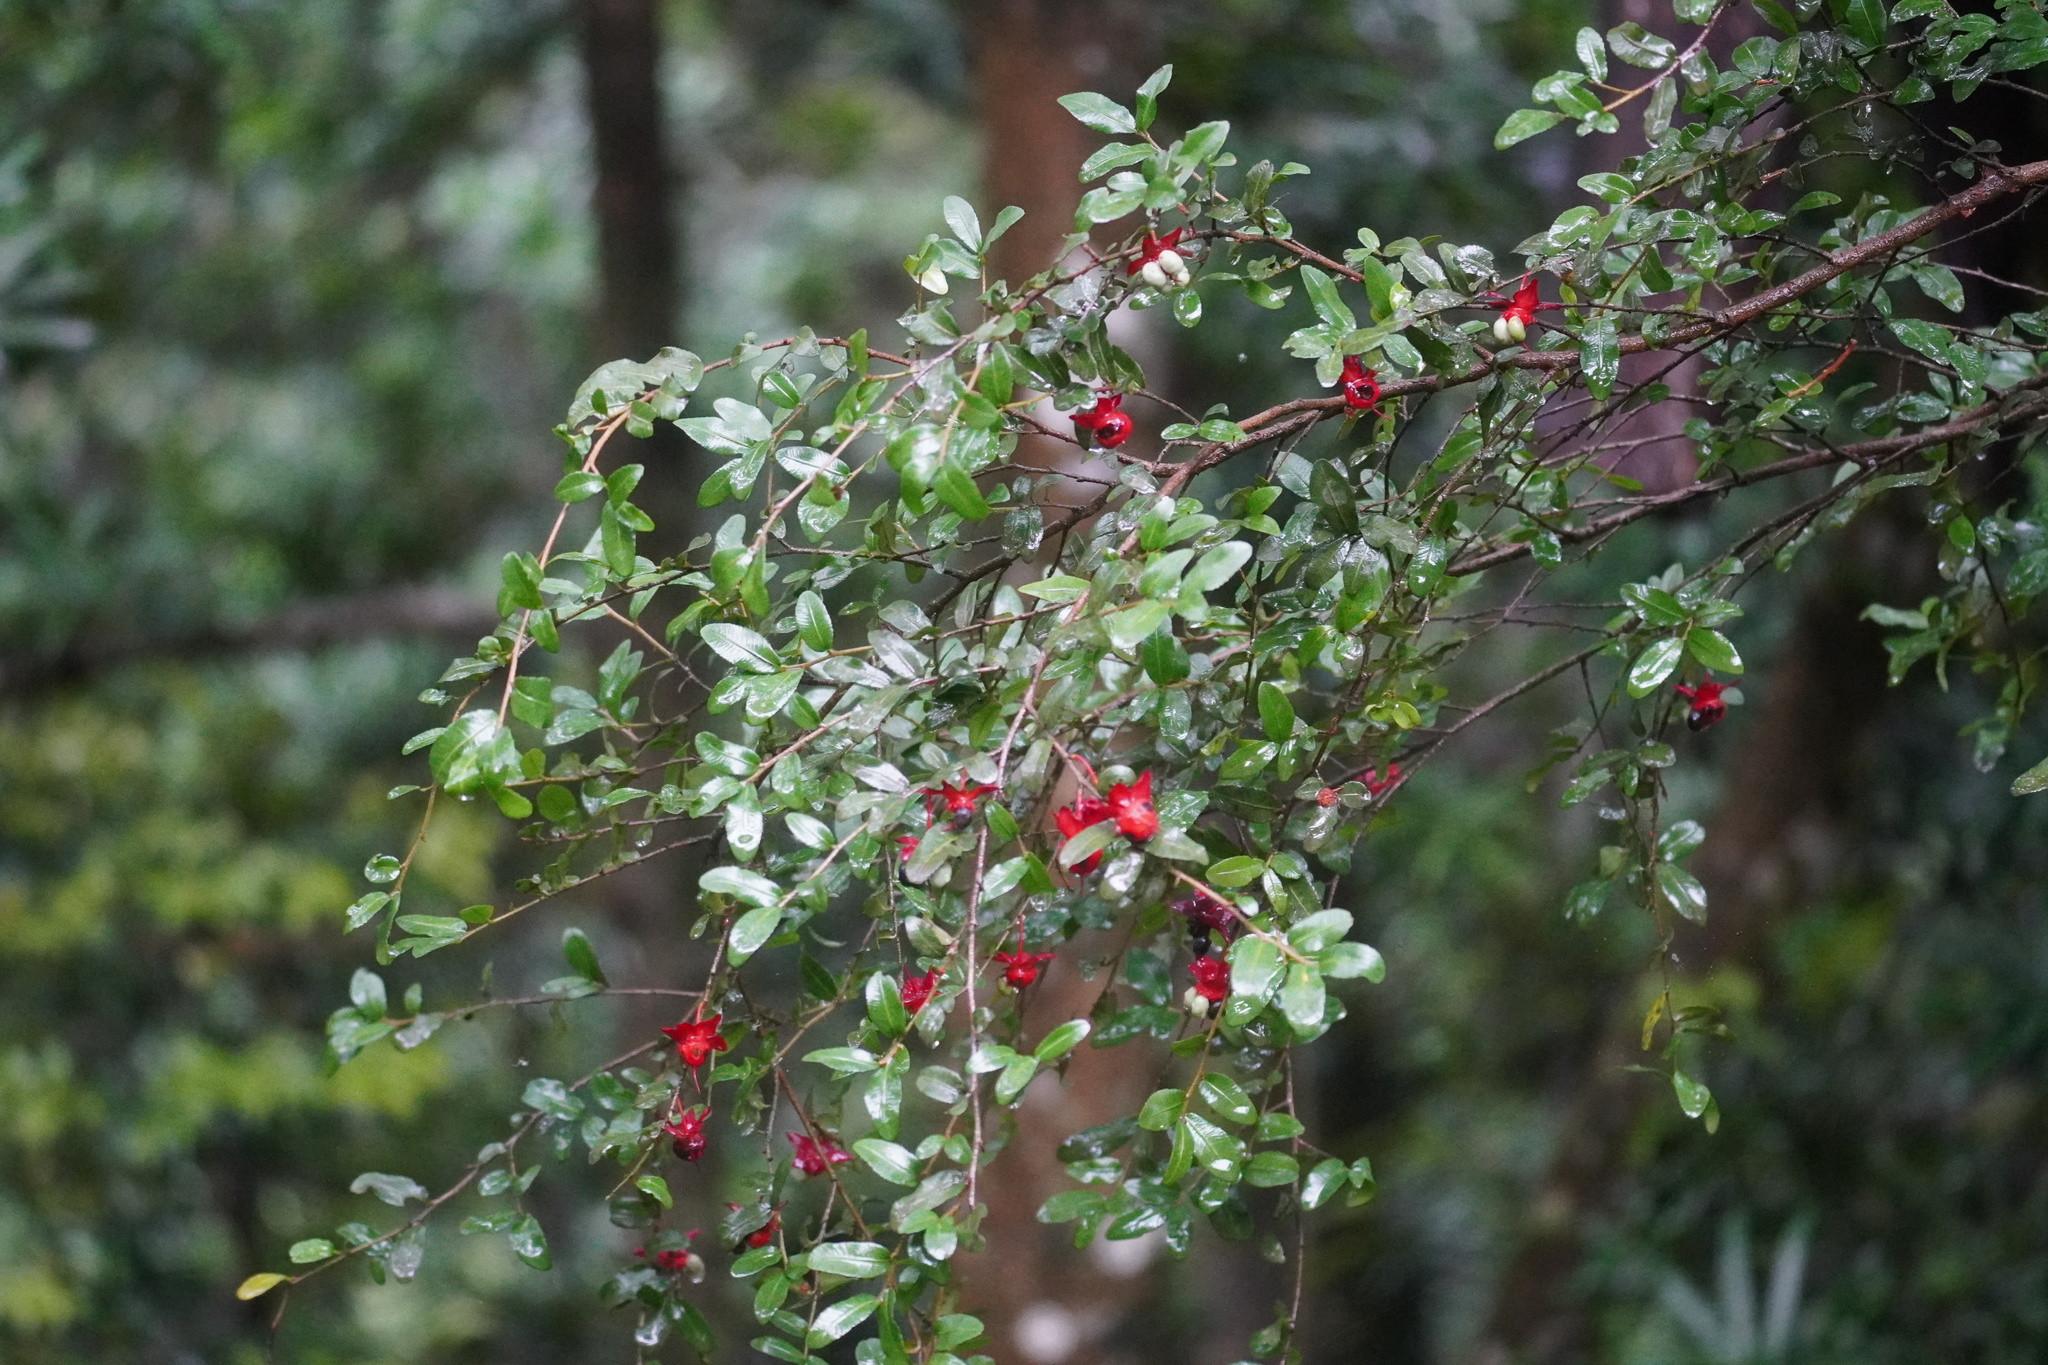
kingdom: Plantae
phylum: Tracheophyta
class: Magnoliopsida
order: Malpighiales
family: Ochnaceae
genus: Ochna
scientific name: Ochna serrulata
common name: Mickey mouse plant
